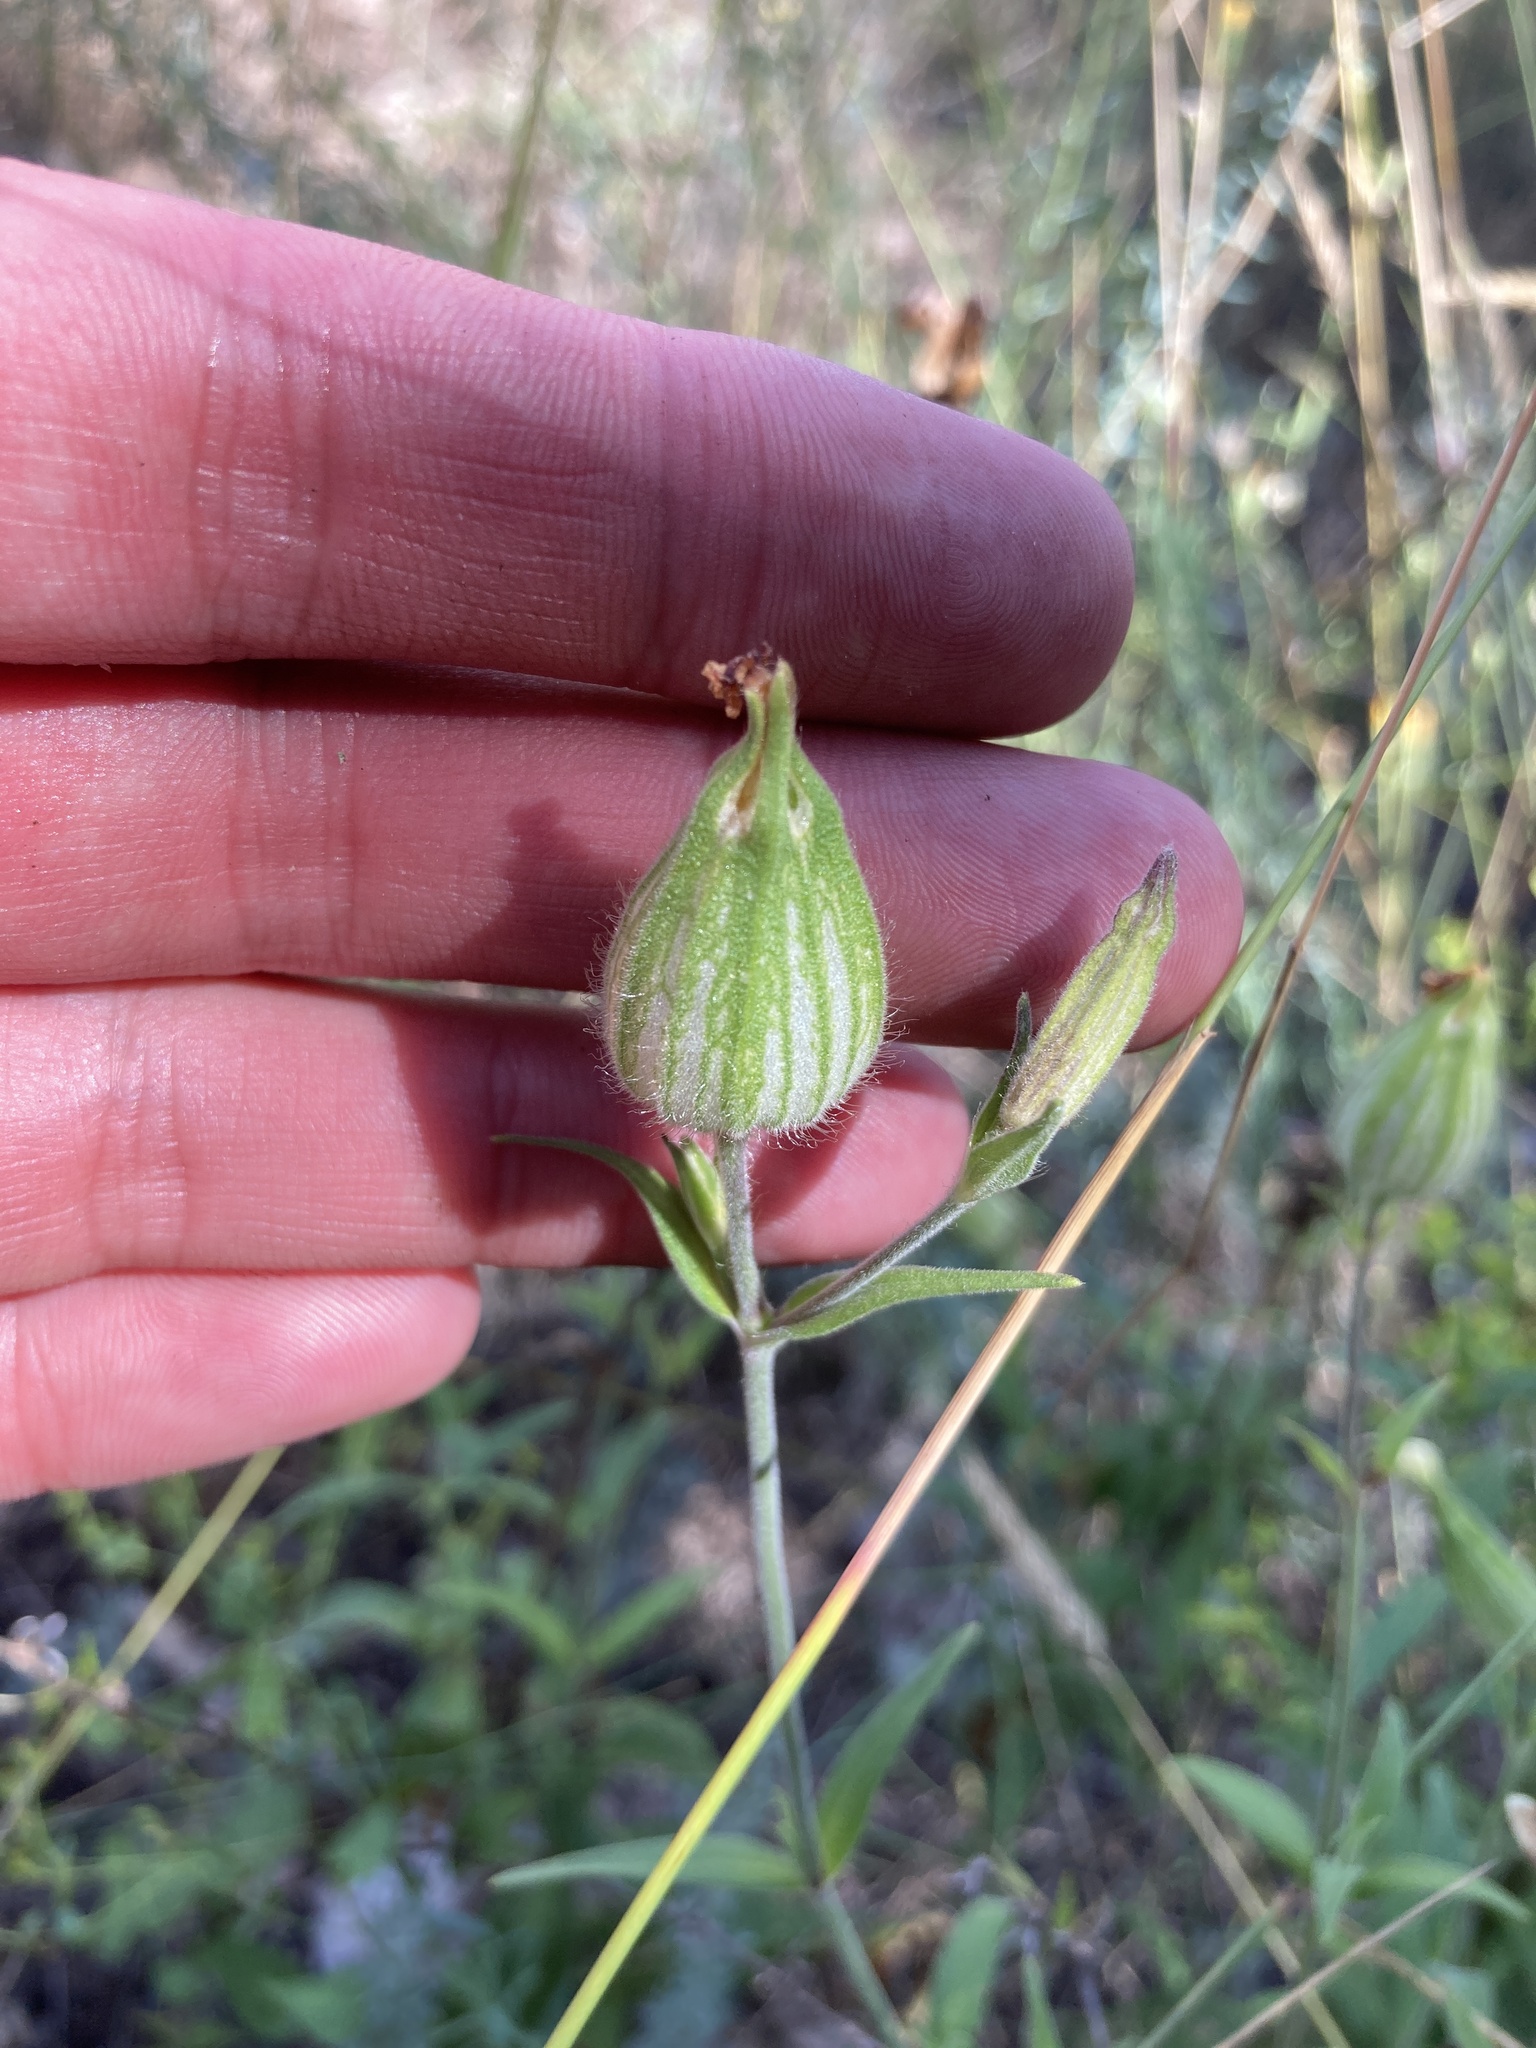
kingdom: Plantae
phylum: Tracheophyta
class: Magnoliopsida
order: Caryophyllales
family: Caryophyllaceae
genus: Silene
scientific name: Silene latifolia
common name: White campion
